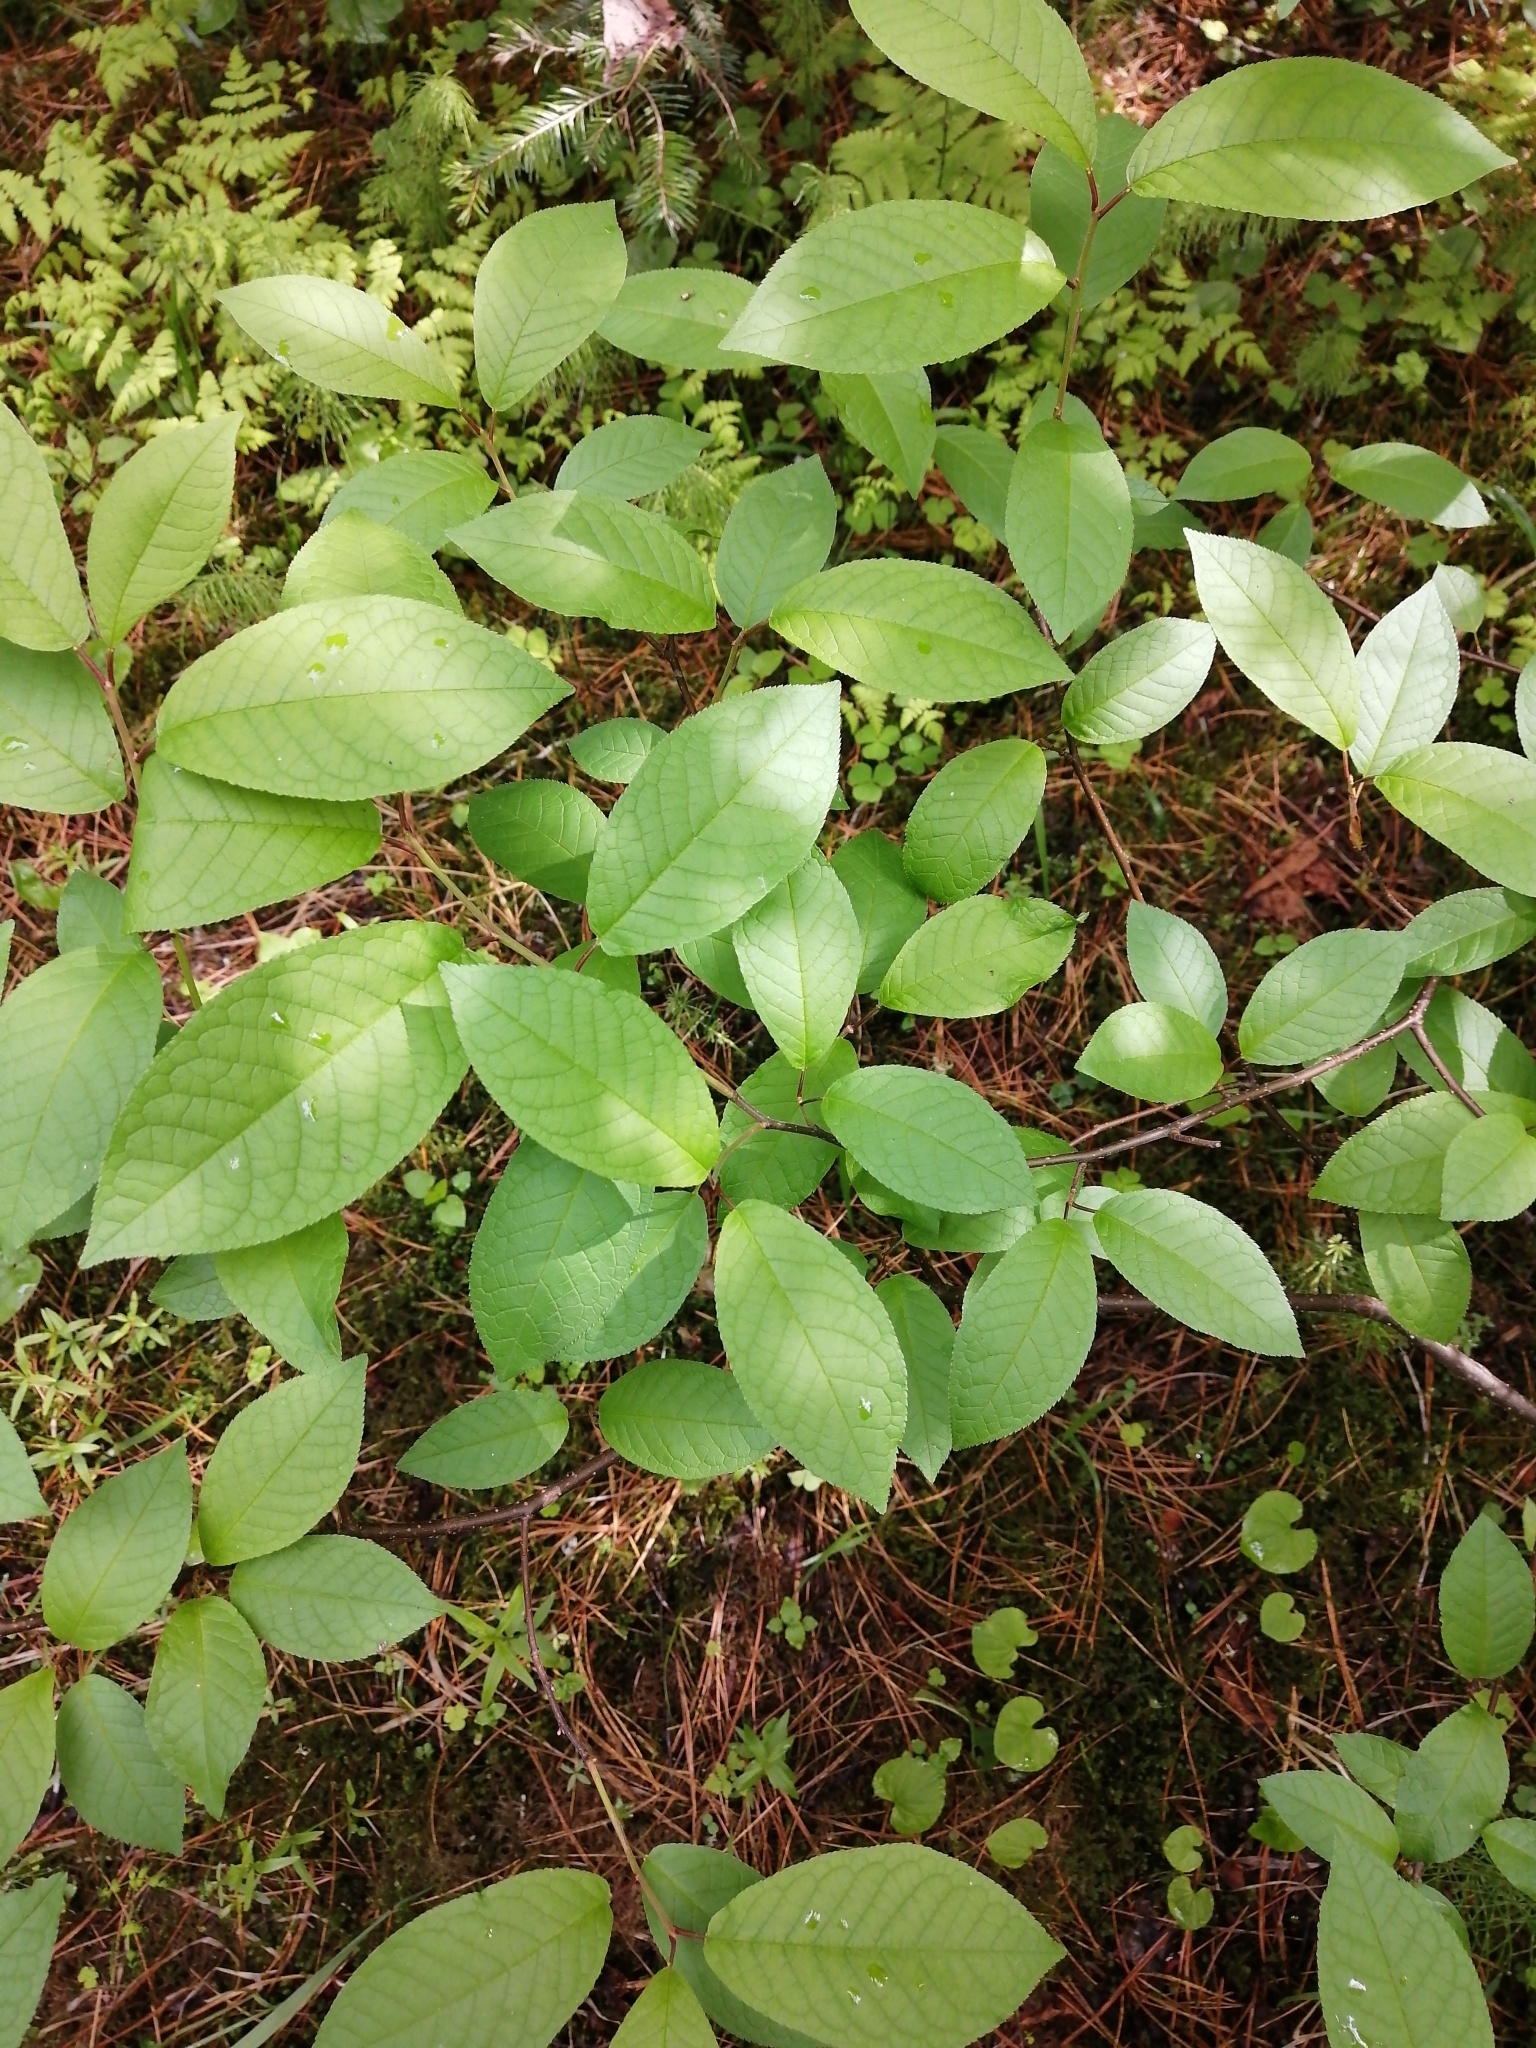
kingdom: Plantae
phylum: Tracheophyta
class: Magnoliopsida
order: Rosales
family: Rosaceae
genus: Prunus
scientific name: Prunus padus
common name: Bird cherry
